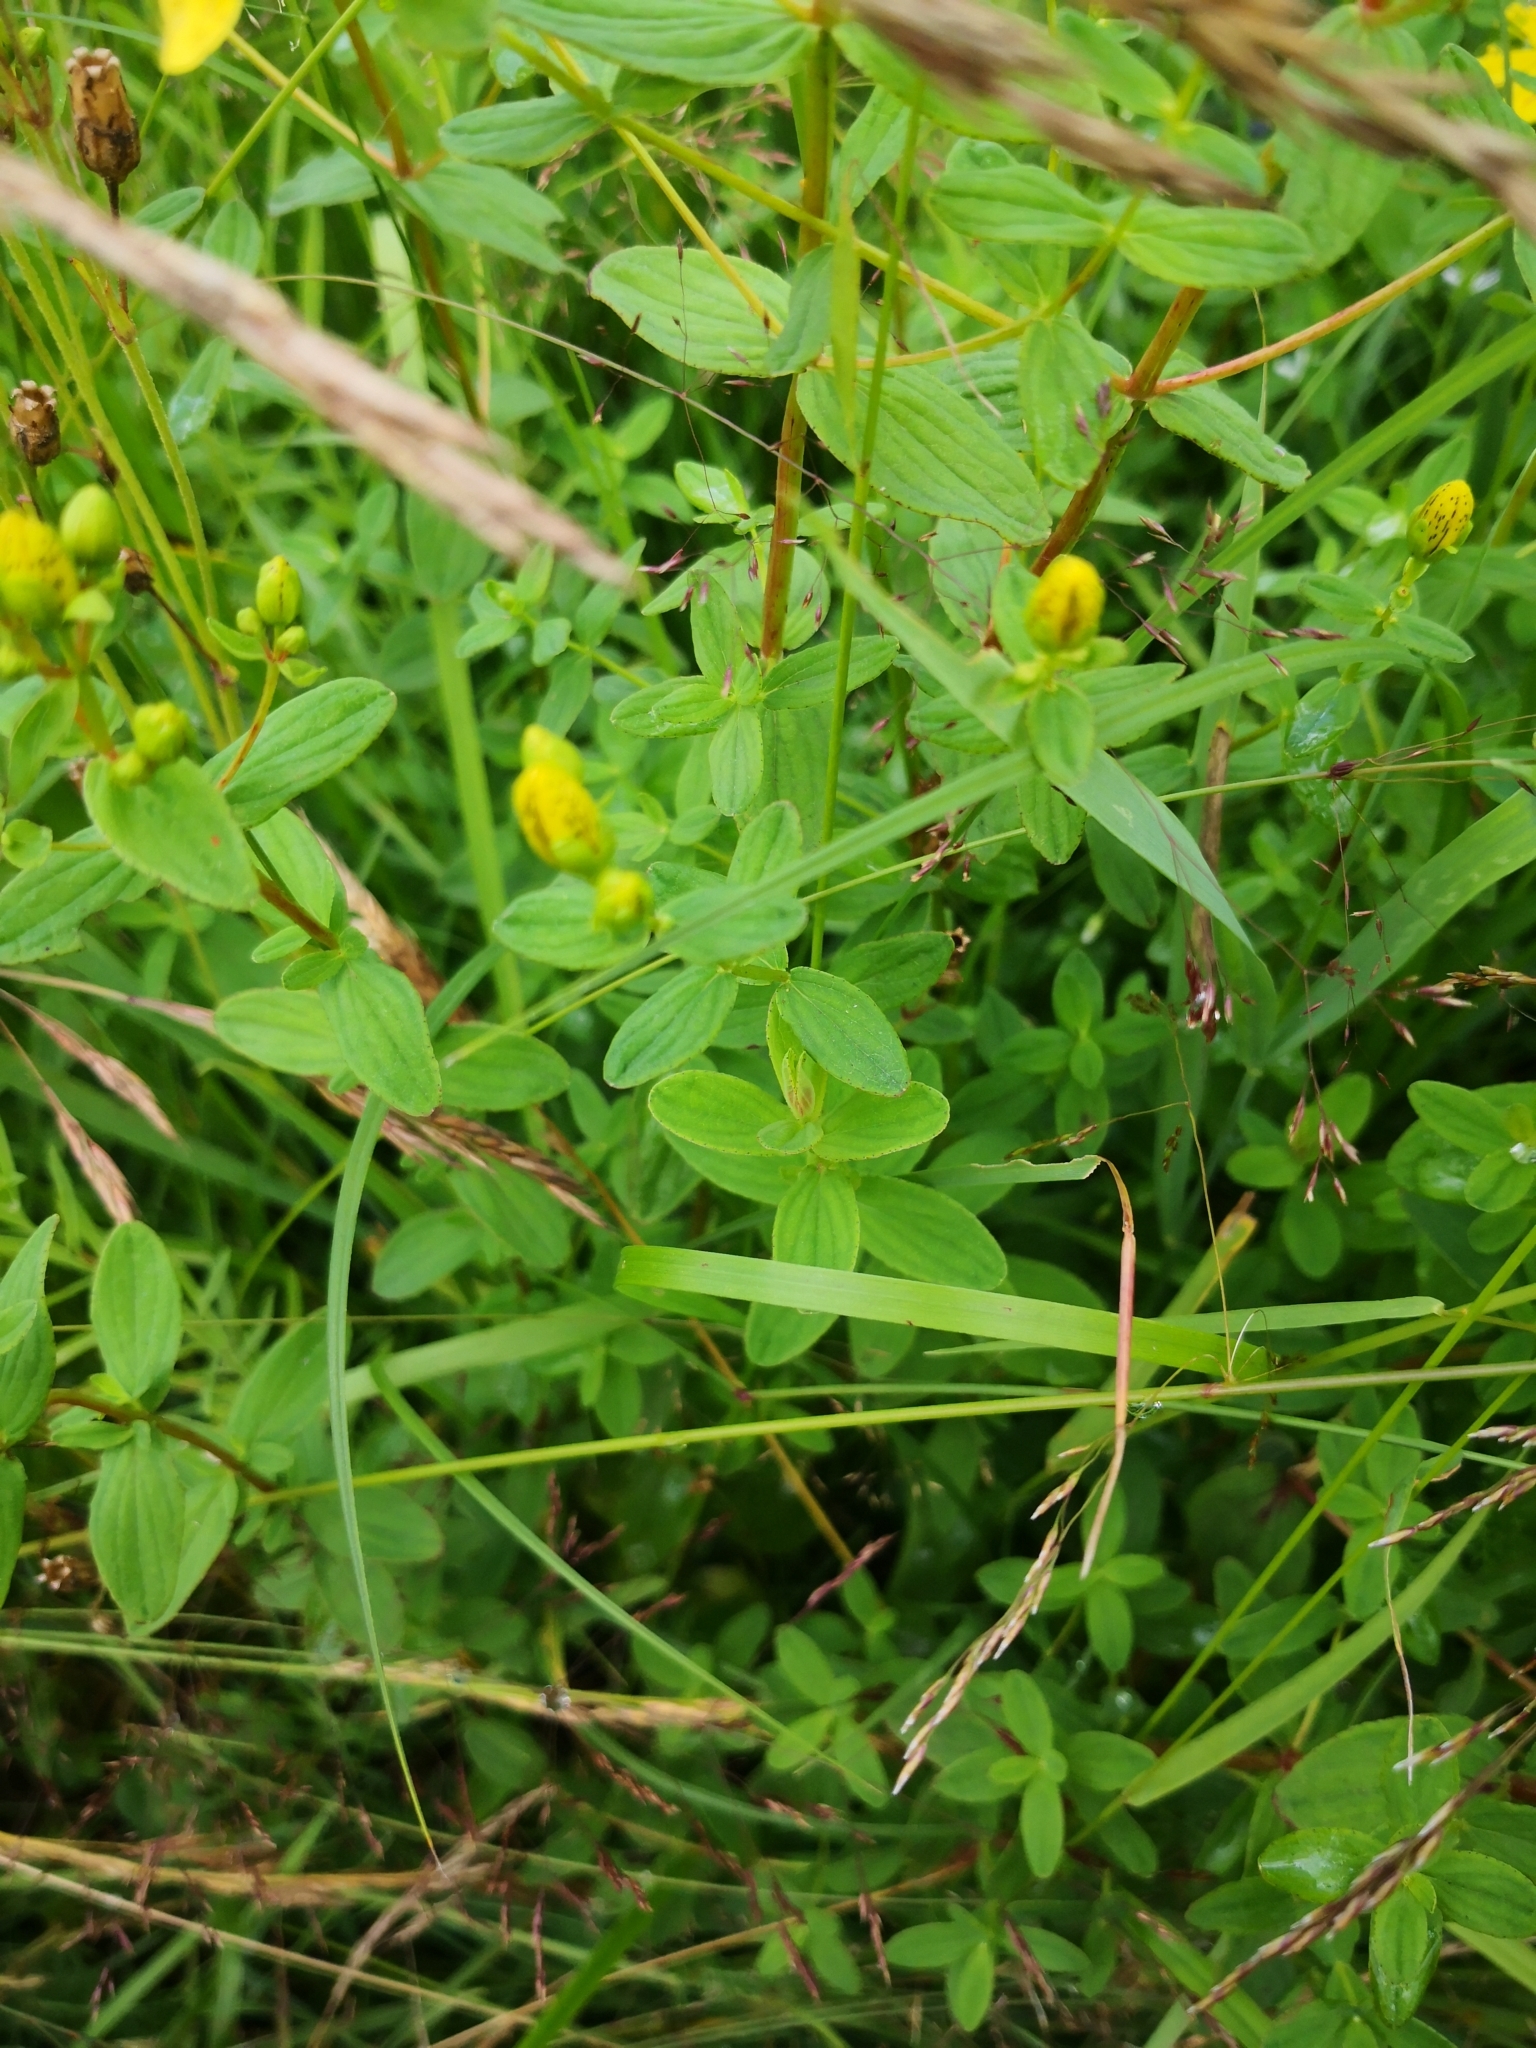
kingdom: Plantae
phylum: Tracheophyta
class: Magnoliopsida
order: Malpighiales
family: Hypericaceae
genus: Hypericum
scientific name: Hypericum maculatum
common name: Imperforate st. john's-wort
